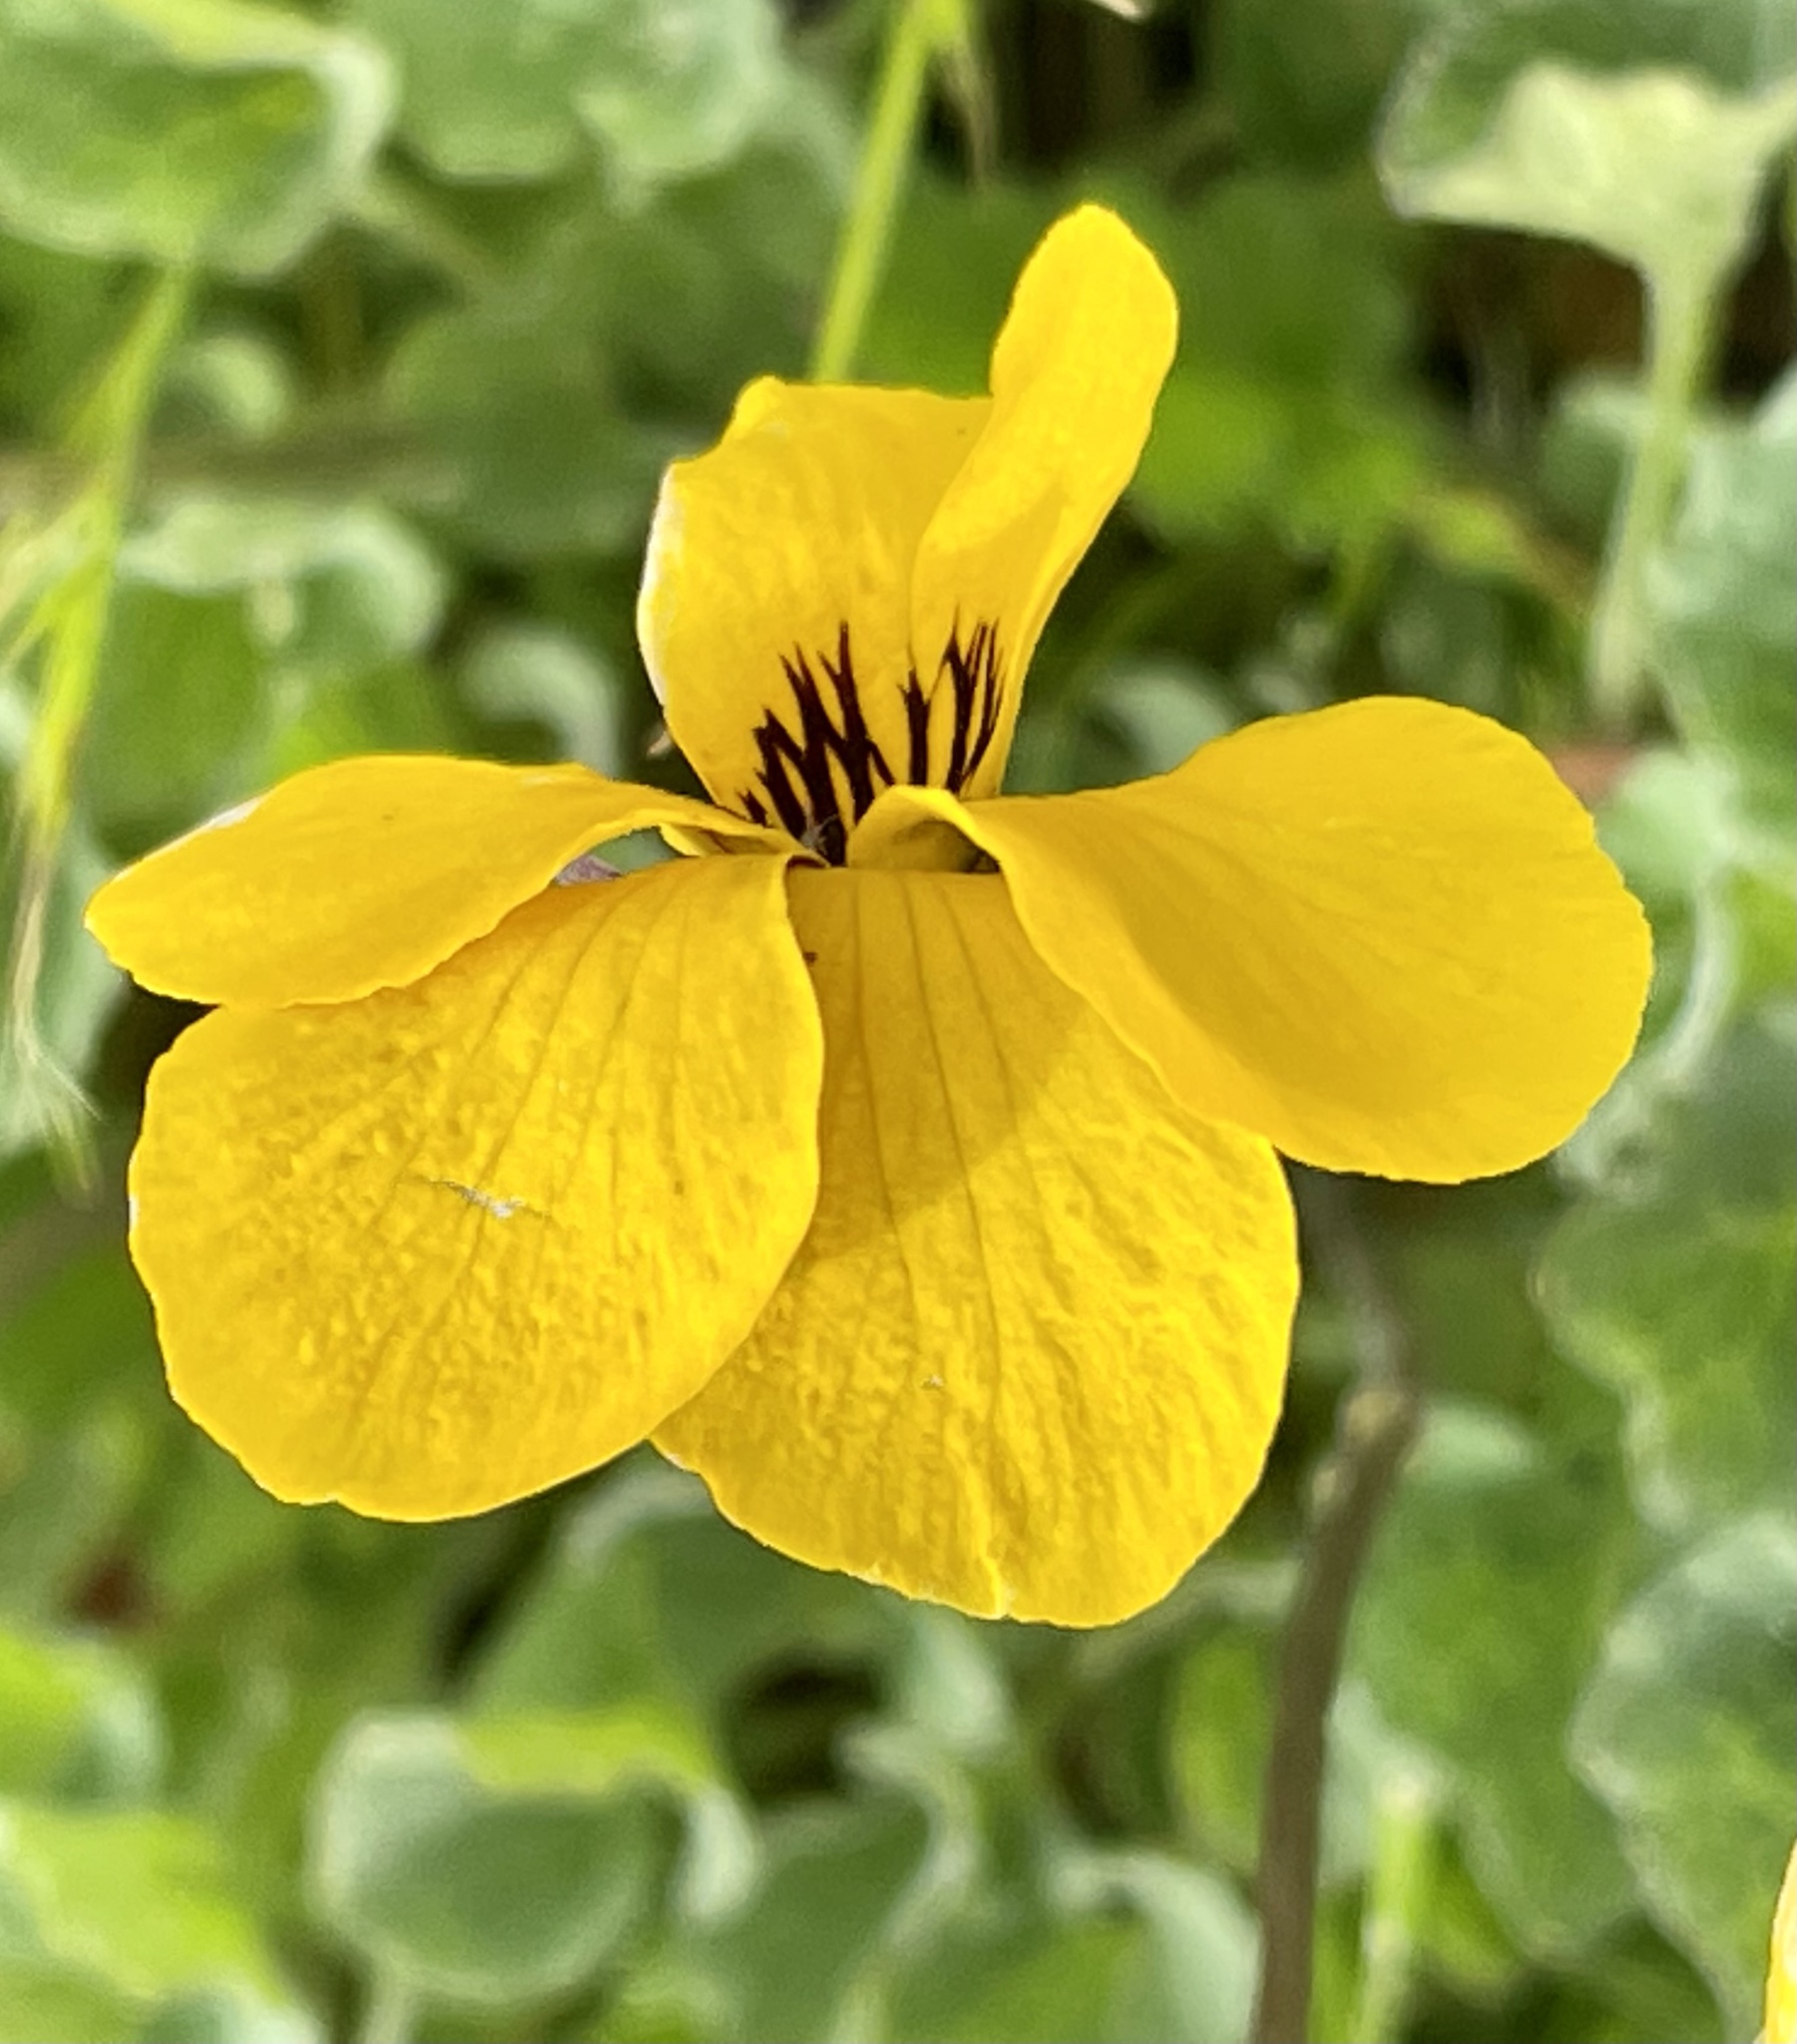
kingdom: Plantae
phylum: Tracheophyta
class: Magnoliopsida
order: Malpighiales
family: Violaceae
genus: Viola
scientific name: Viola pedunculata
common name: California golden violet
